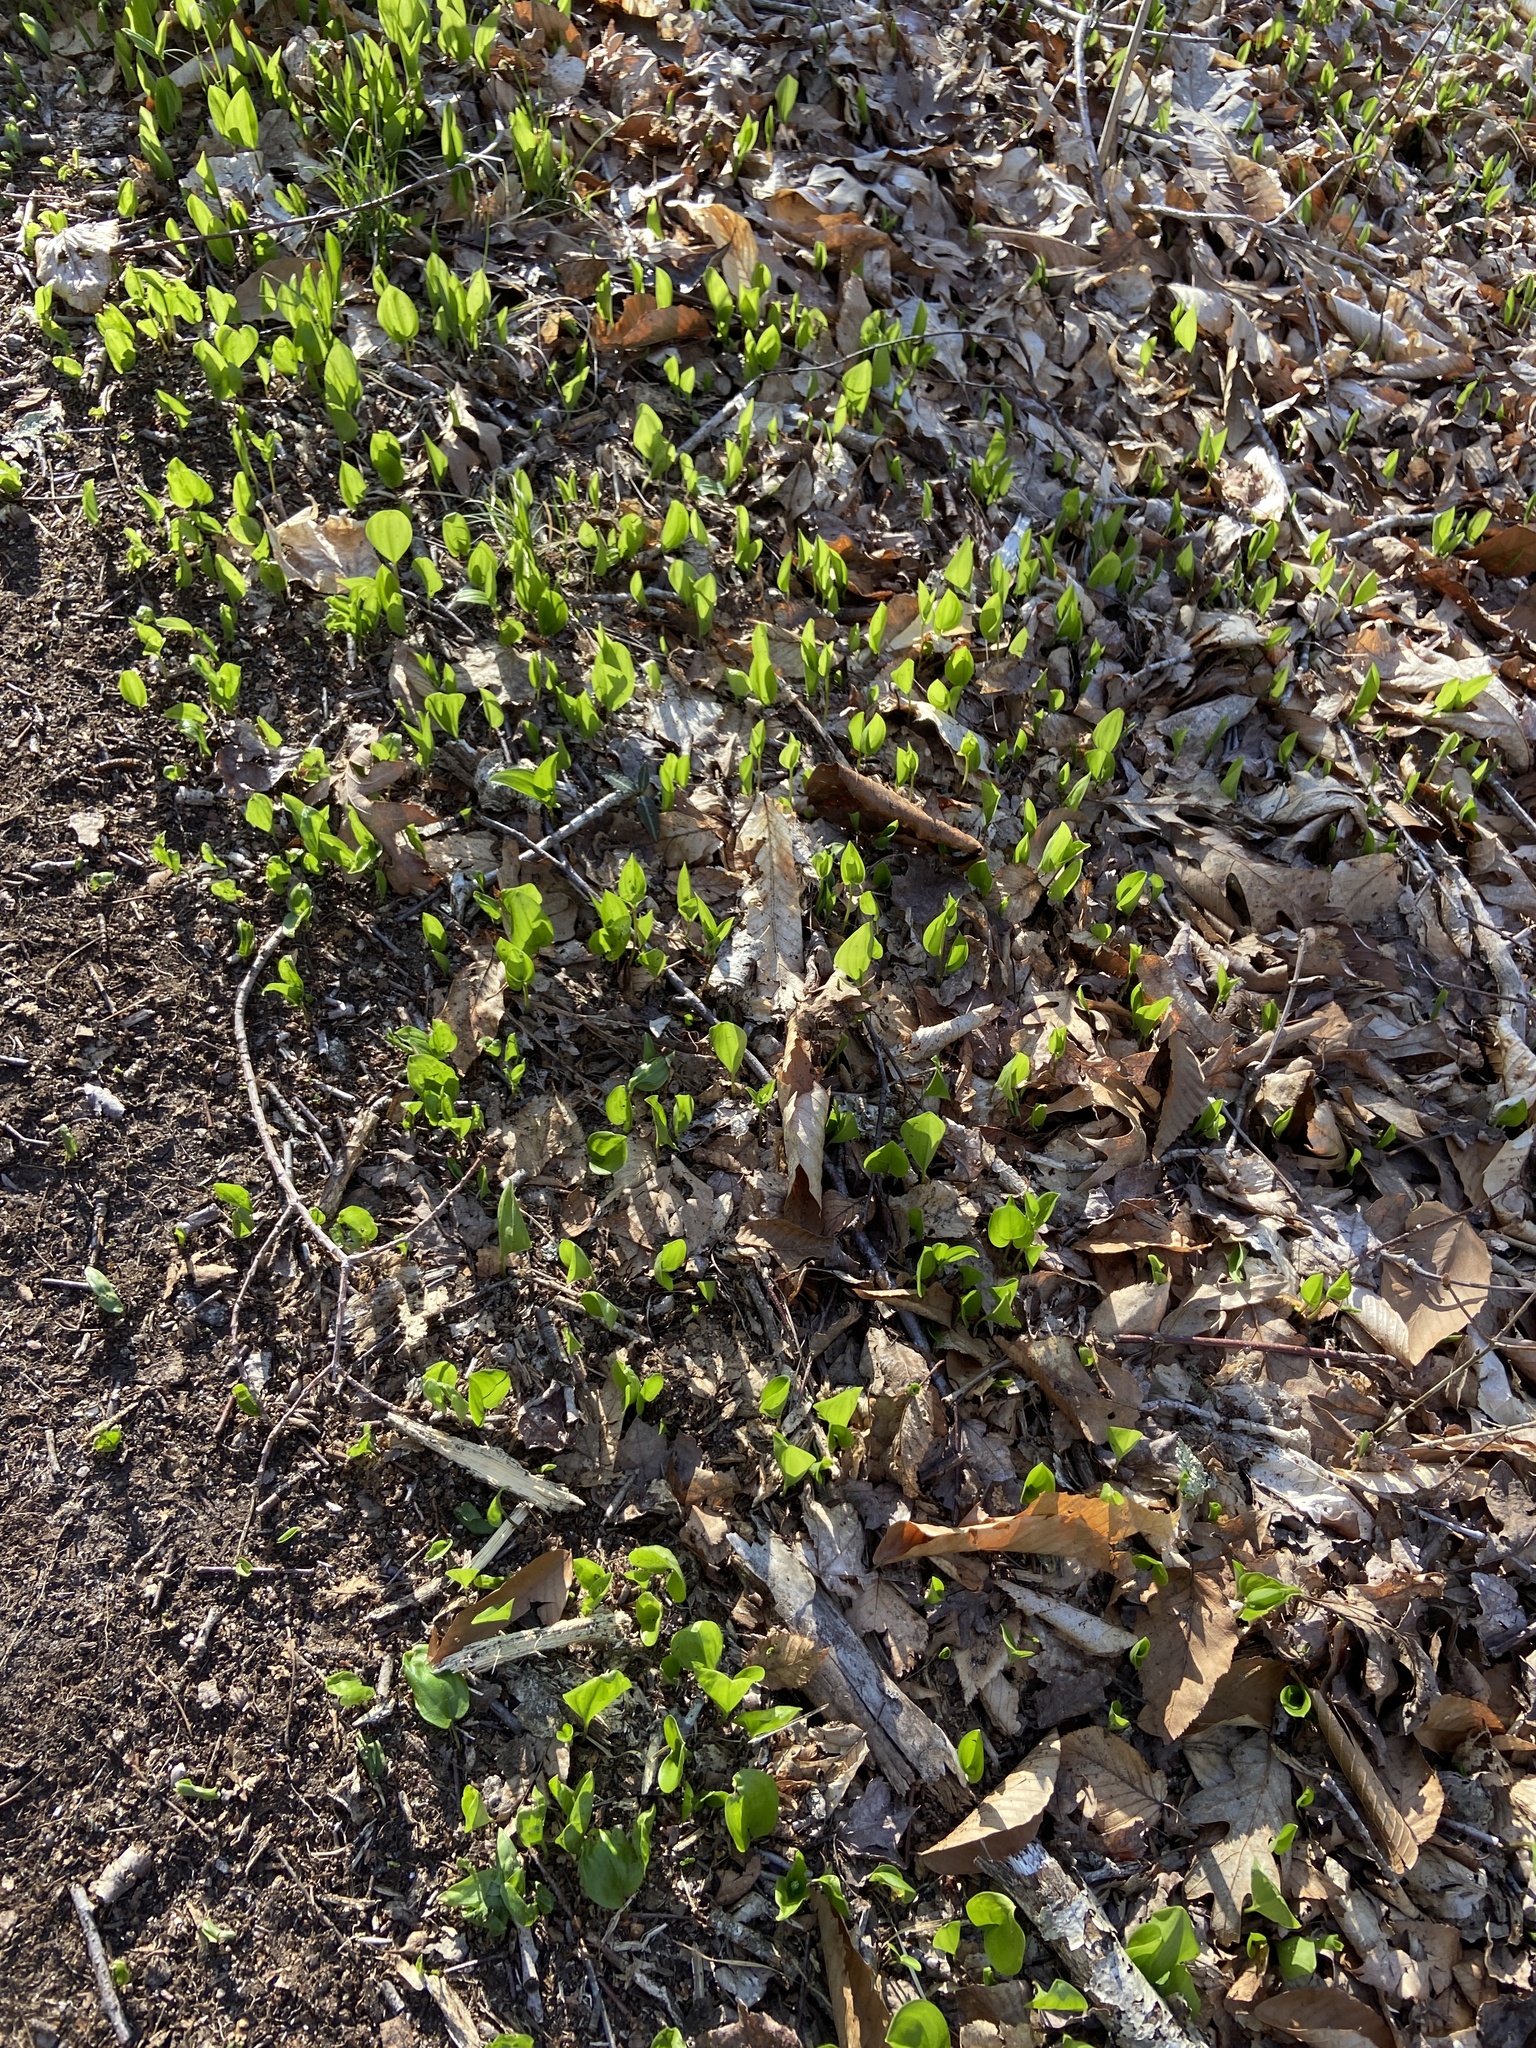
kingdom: Plantae
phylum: Tracheophyta
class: Liliopsida
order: Asparagales
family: Asparagaceae
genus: Maianthemum
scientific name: Maianthemum canadense
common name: False lily-of-the-valley
